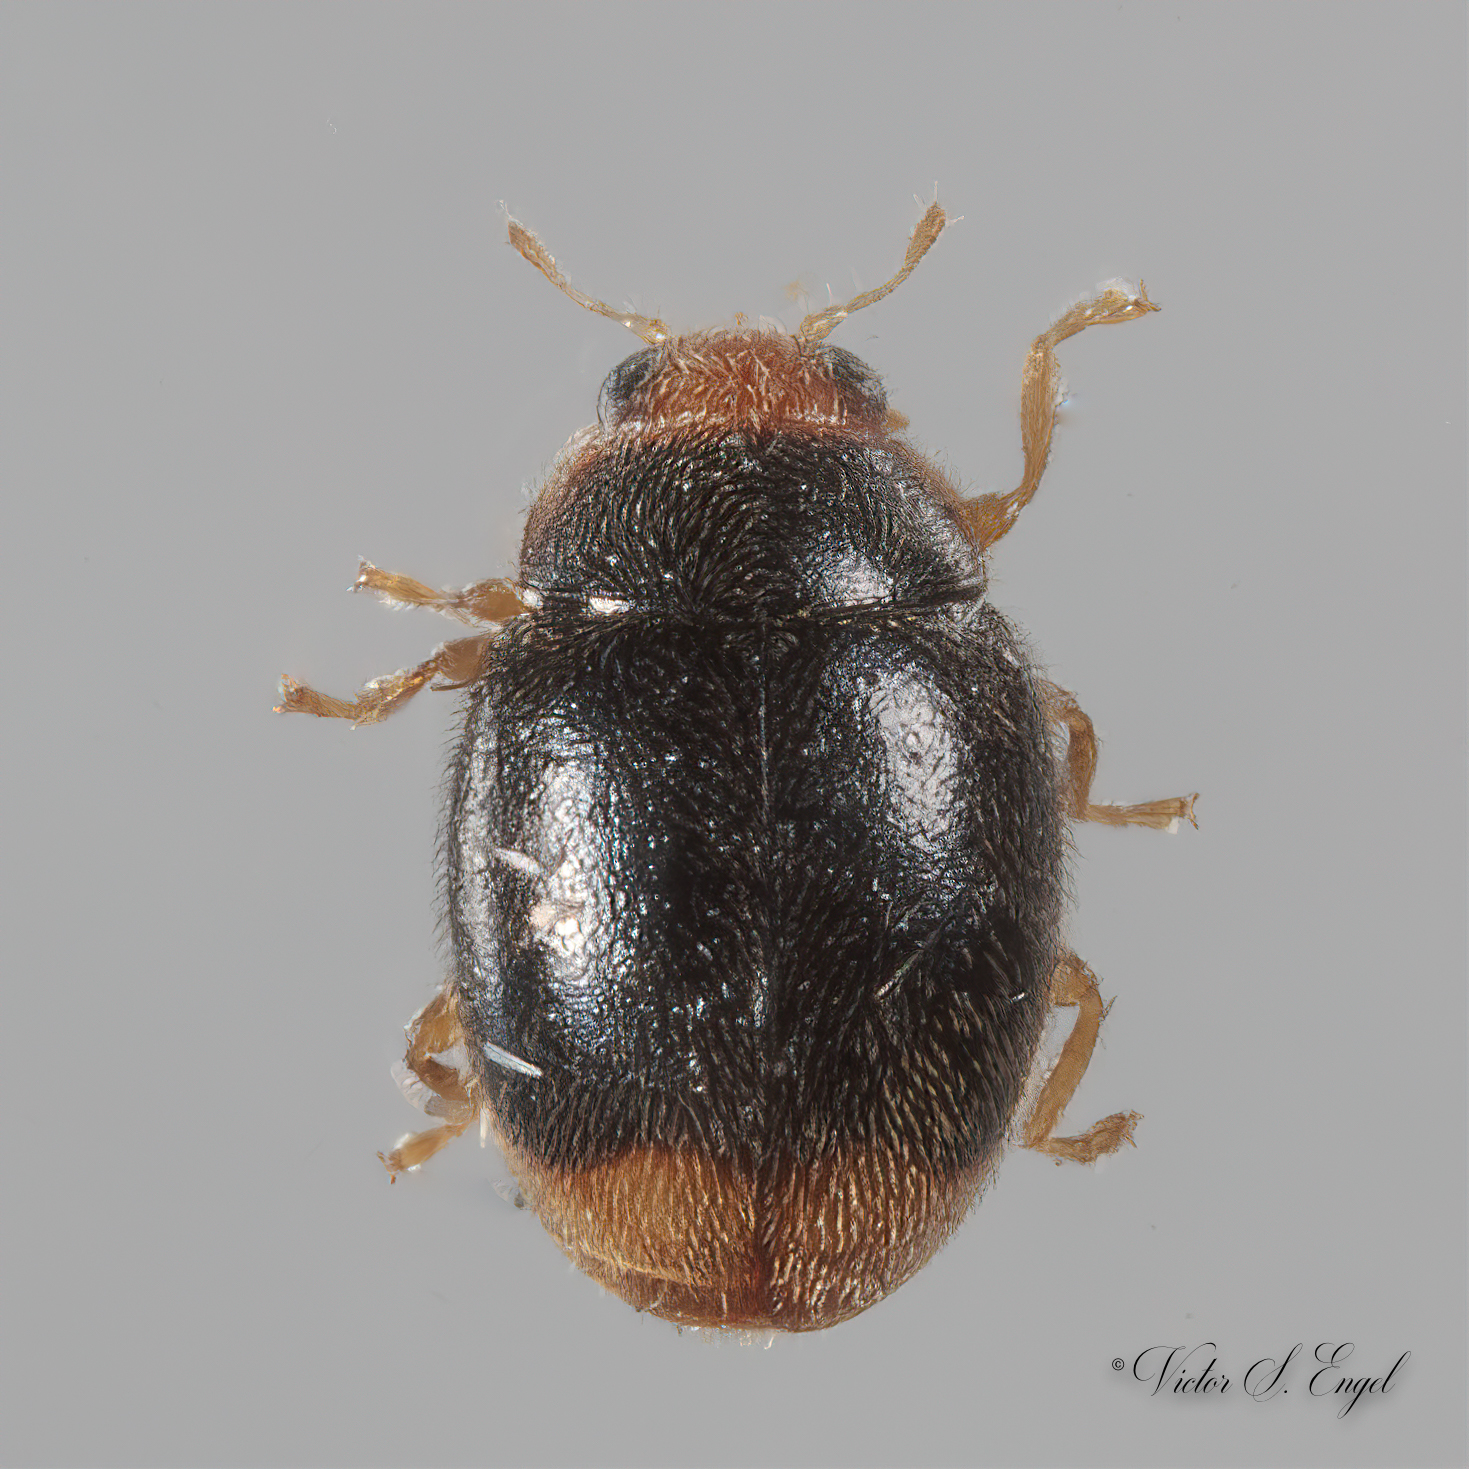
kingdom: Animalia
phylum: Arthropoda
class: Insecta
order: Coleoptera
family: Coccinellidae
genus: Diomus
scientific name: Diomus terminatus
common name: Firefly duskyling
